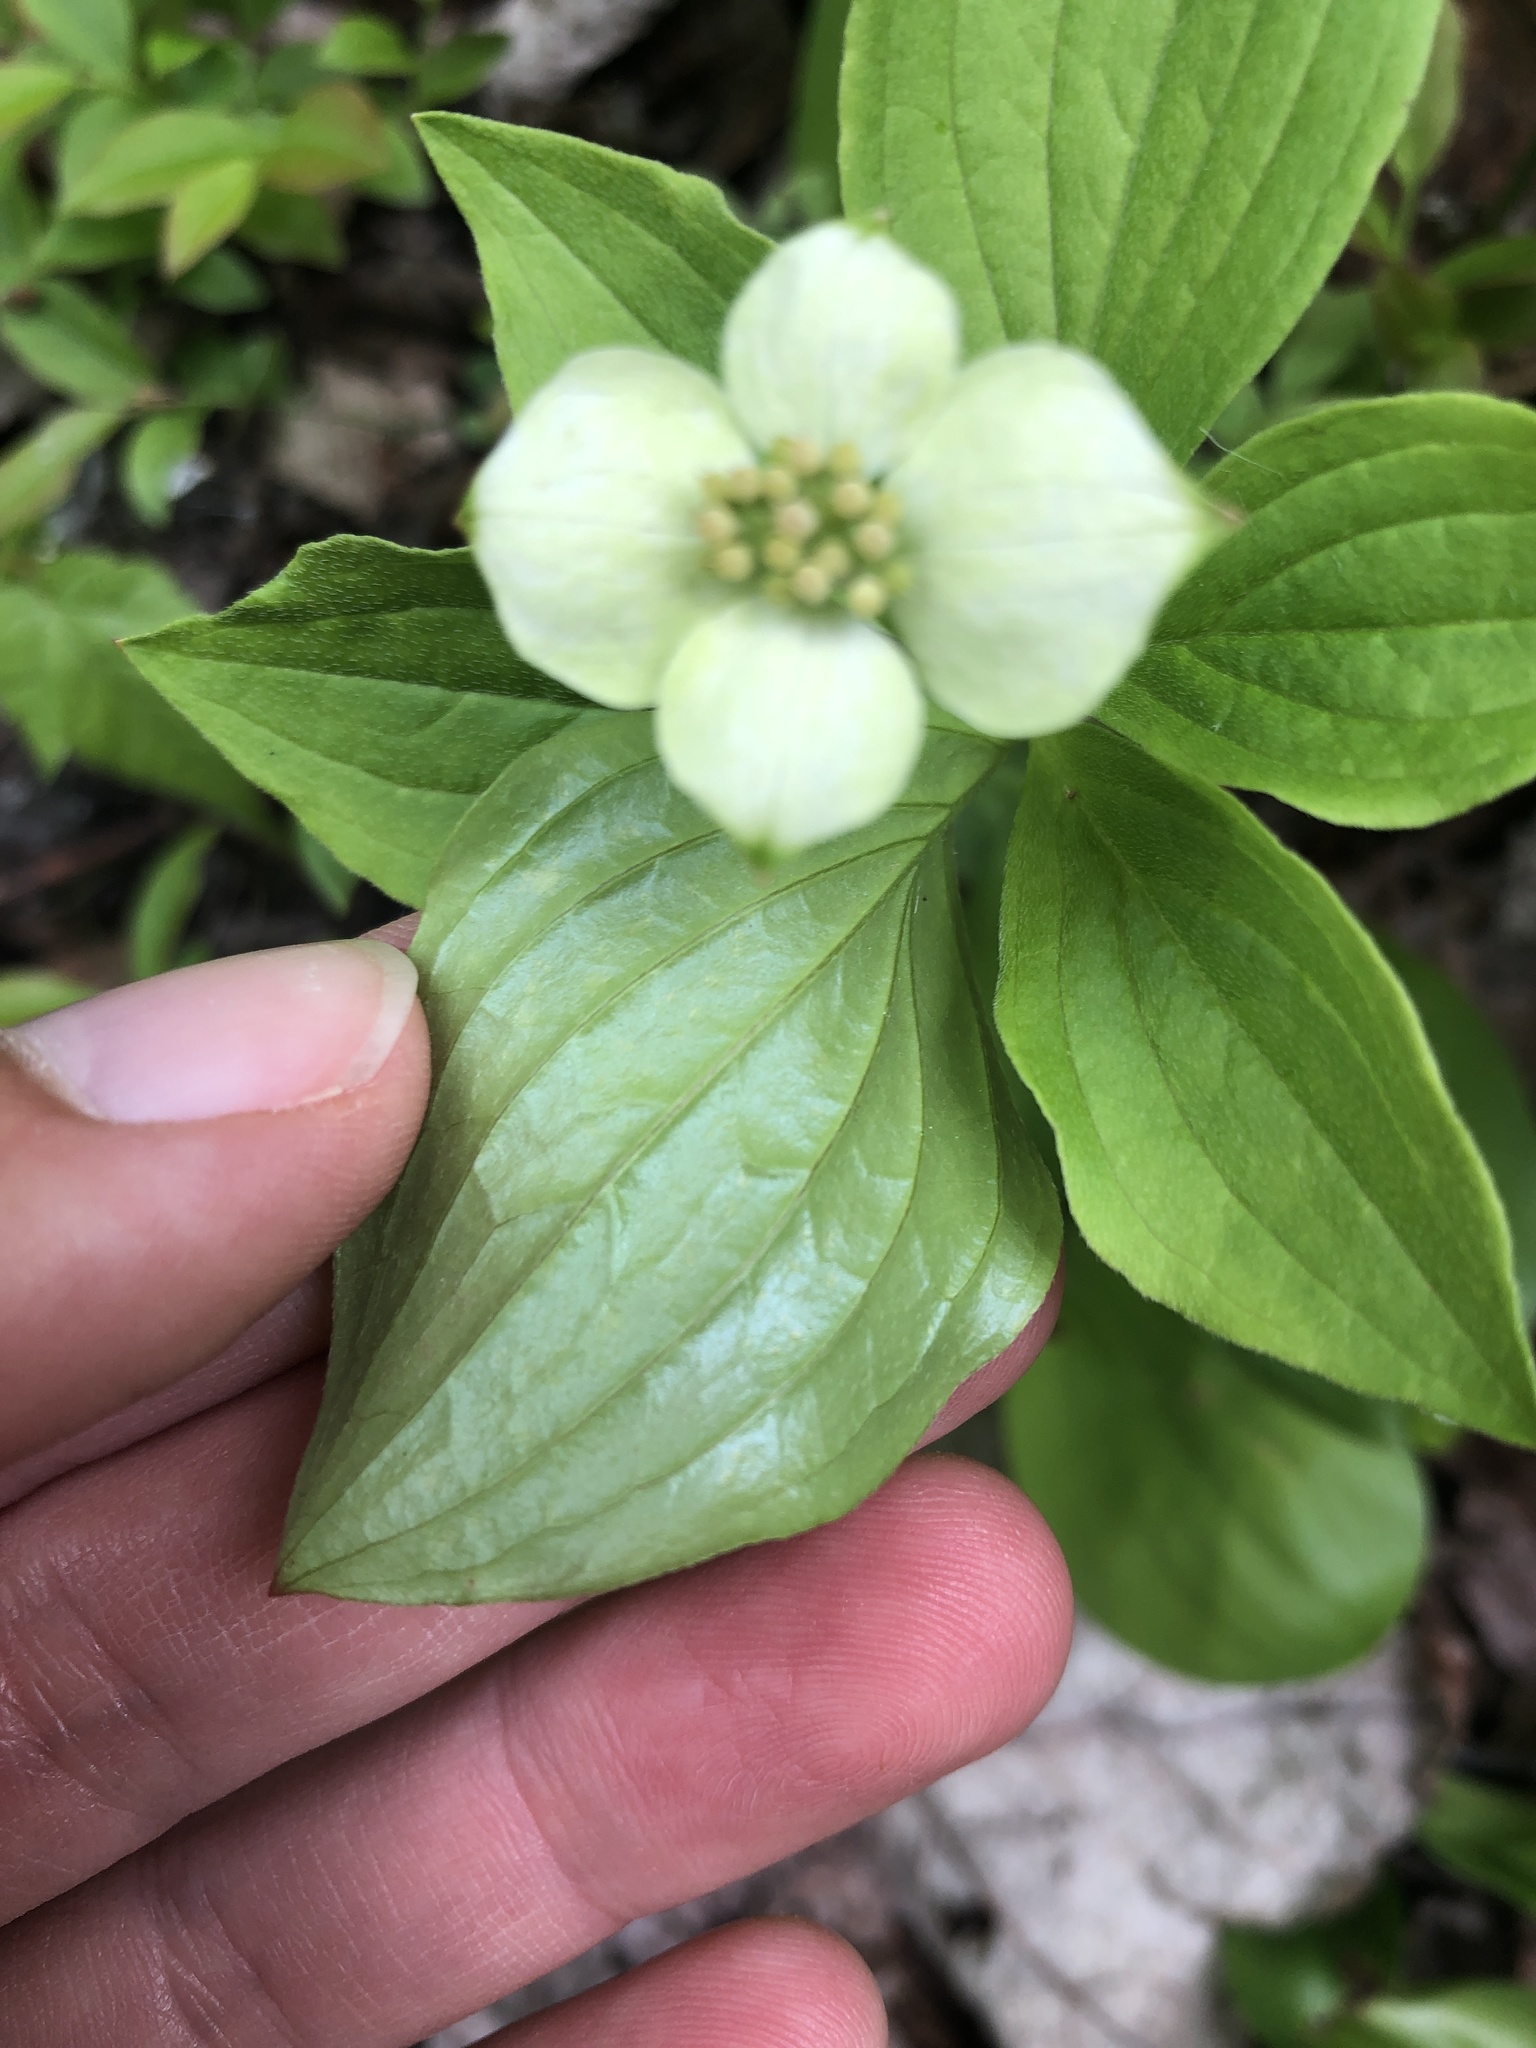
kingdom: Plantae
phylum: Tracheophyta
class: Magnoliopsida
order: Cornales
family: Cornaceae
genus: Cornus
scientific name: Cornus canadensis
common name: Creeping dogwood
